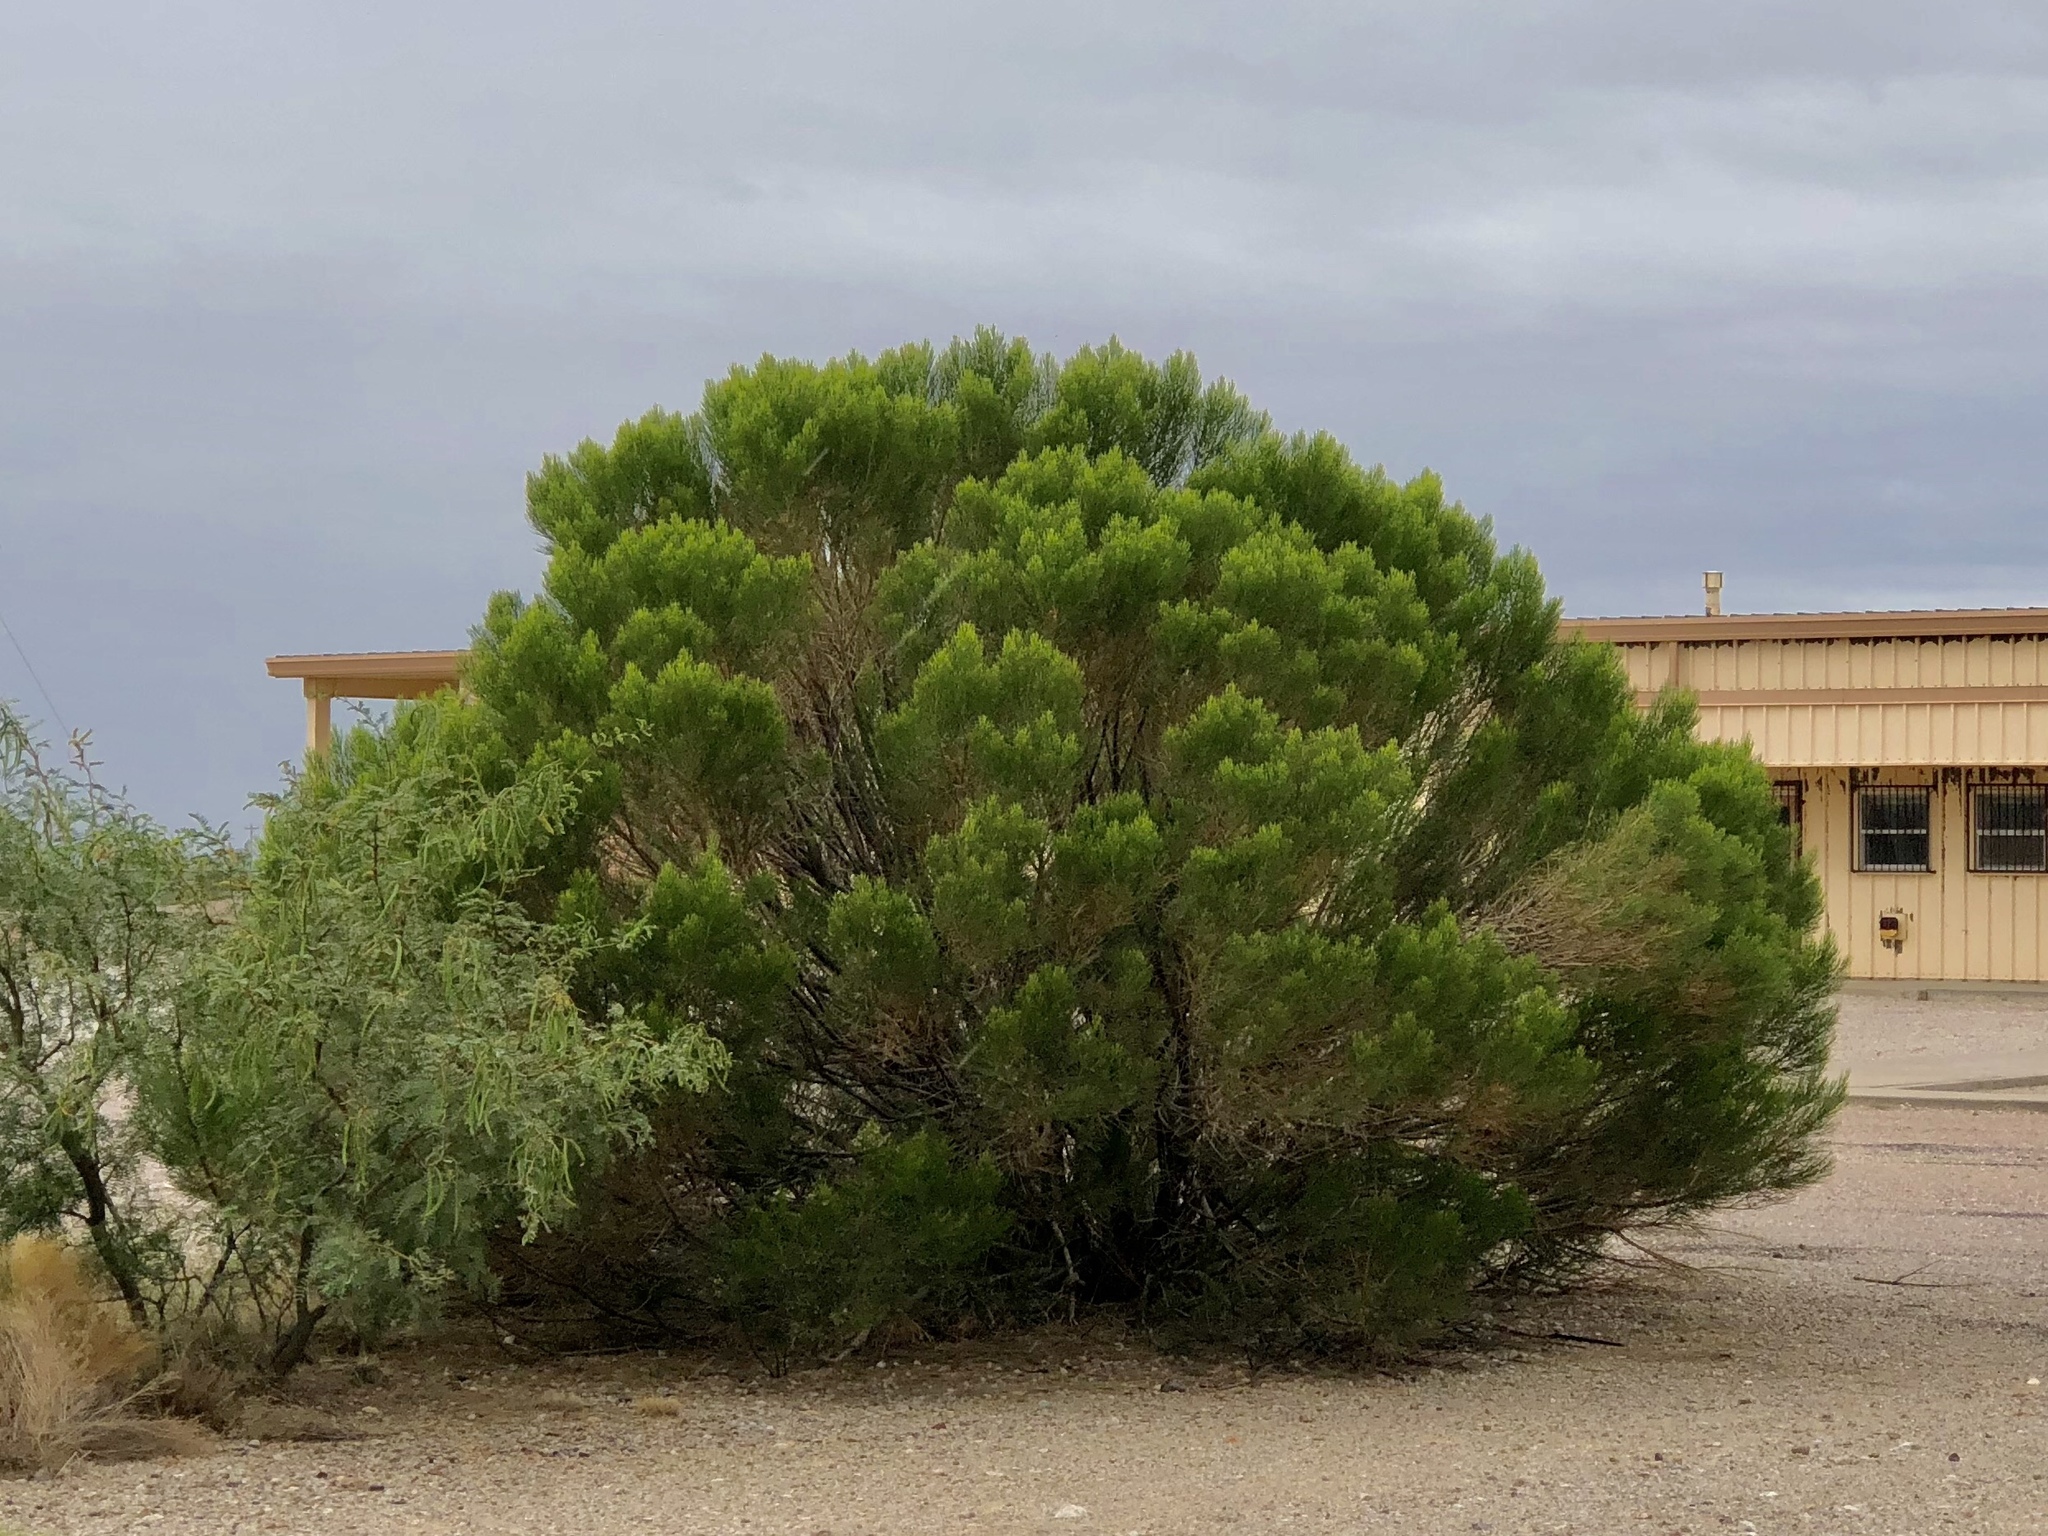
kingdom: Plantae
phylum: Tracheophyta
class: Magnoliopsida
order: Asterales
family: Asteraceae
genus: Baccharis
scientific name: Baccharis sarothroides
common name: Desert-broom
